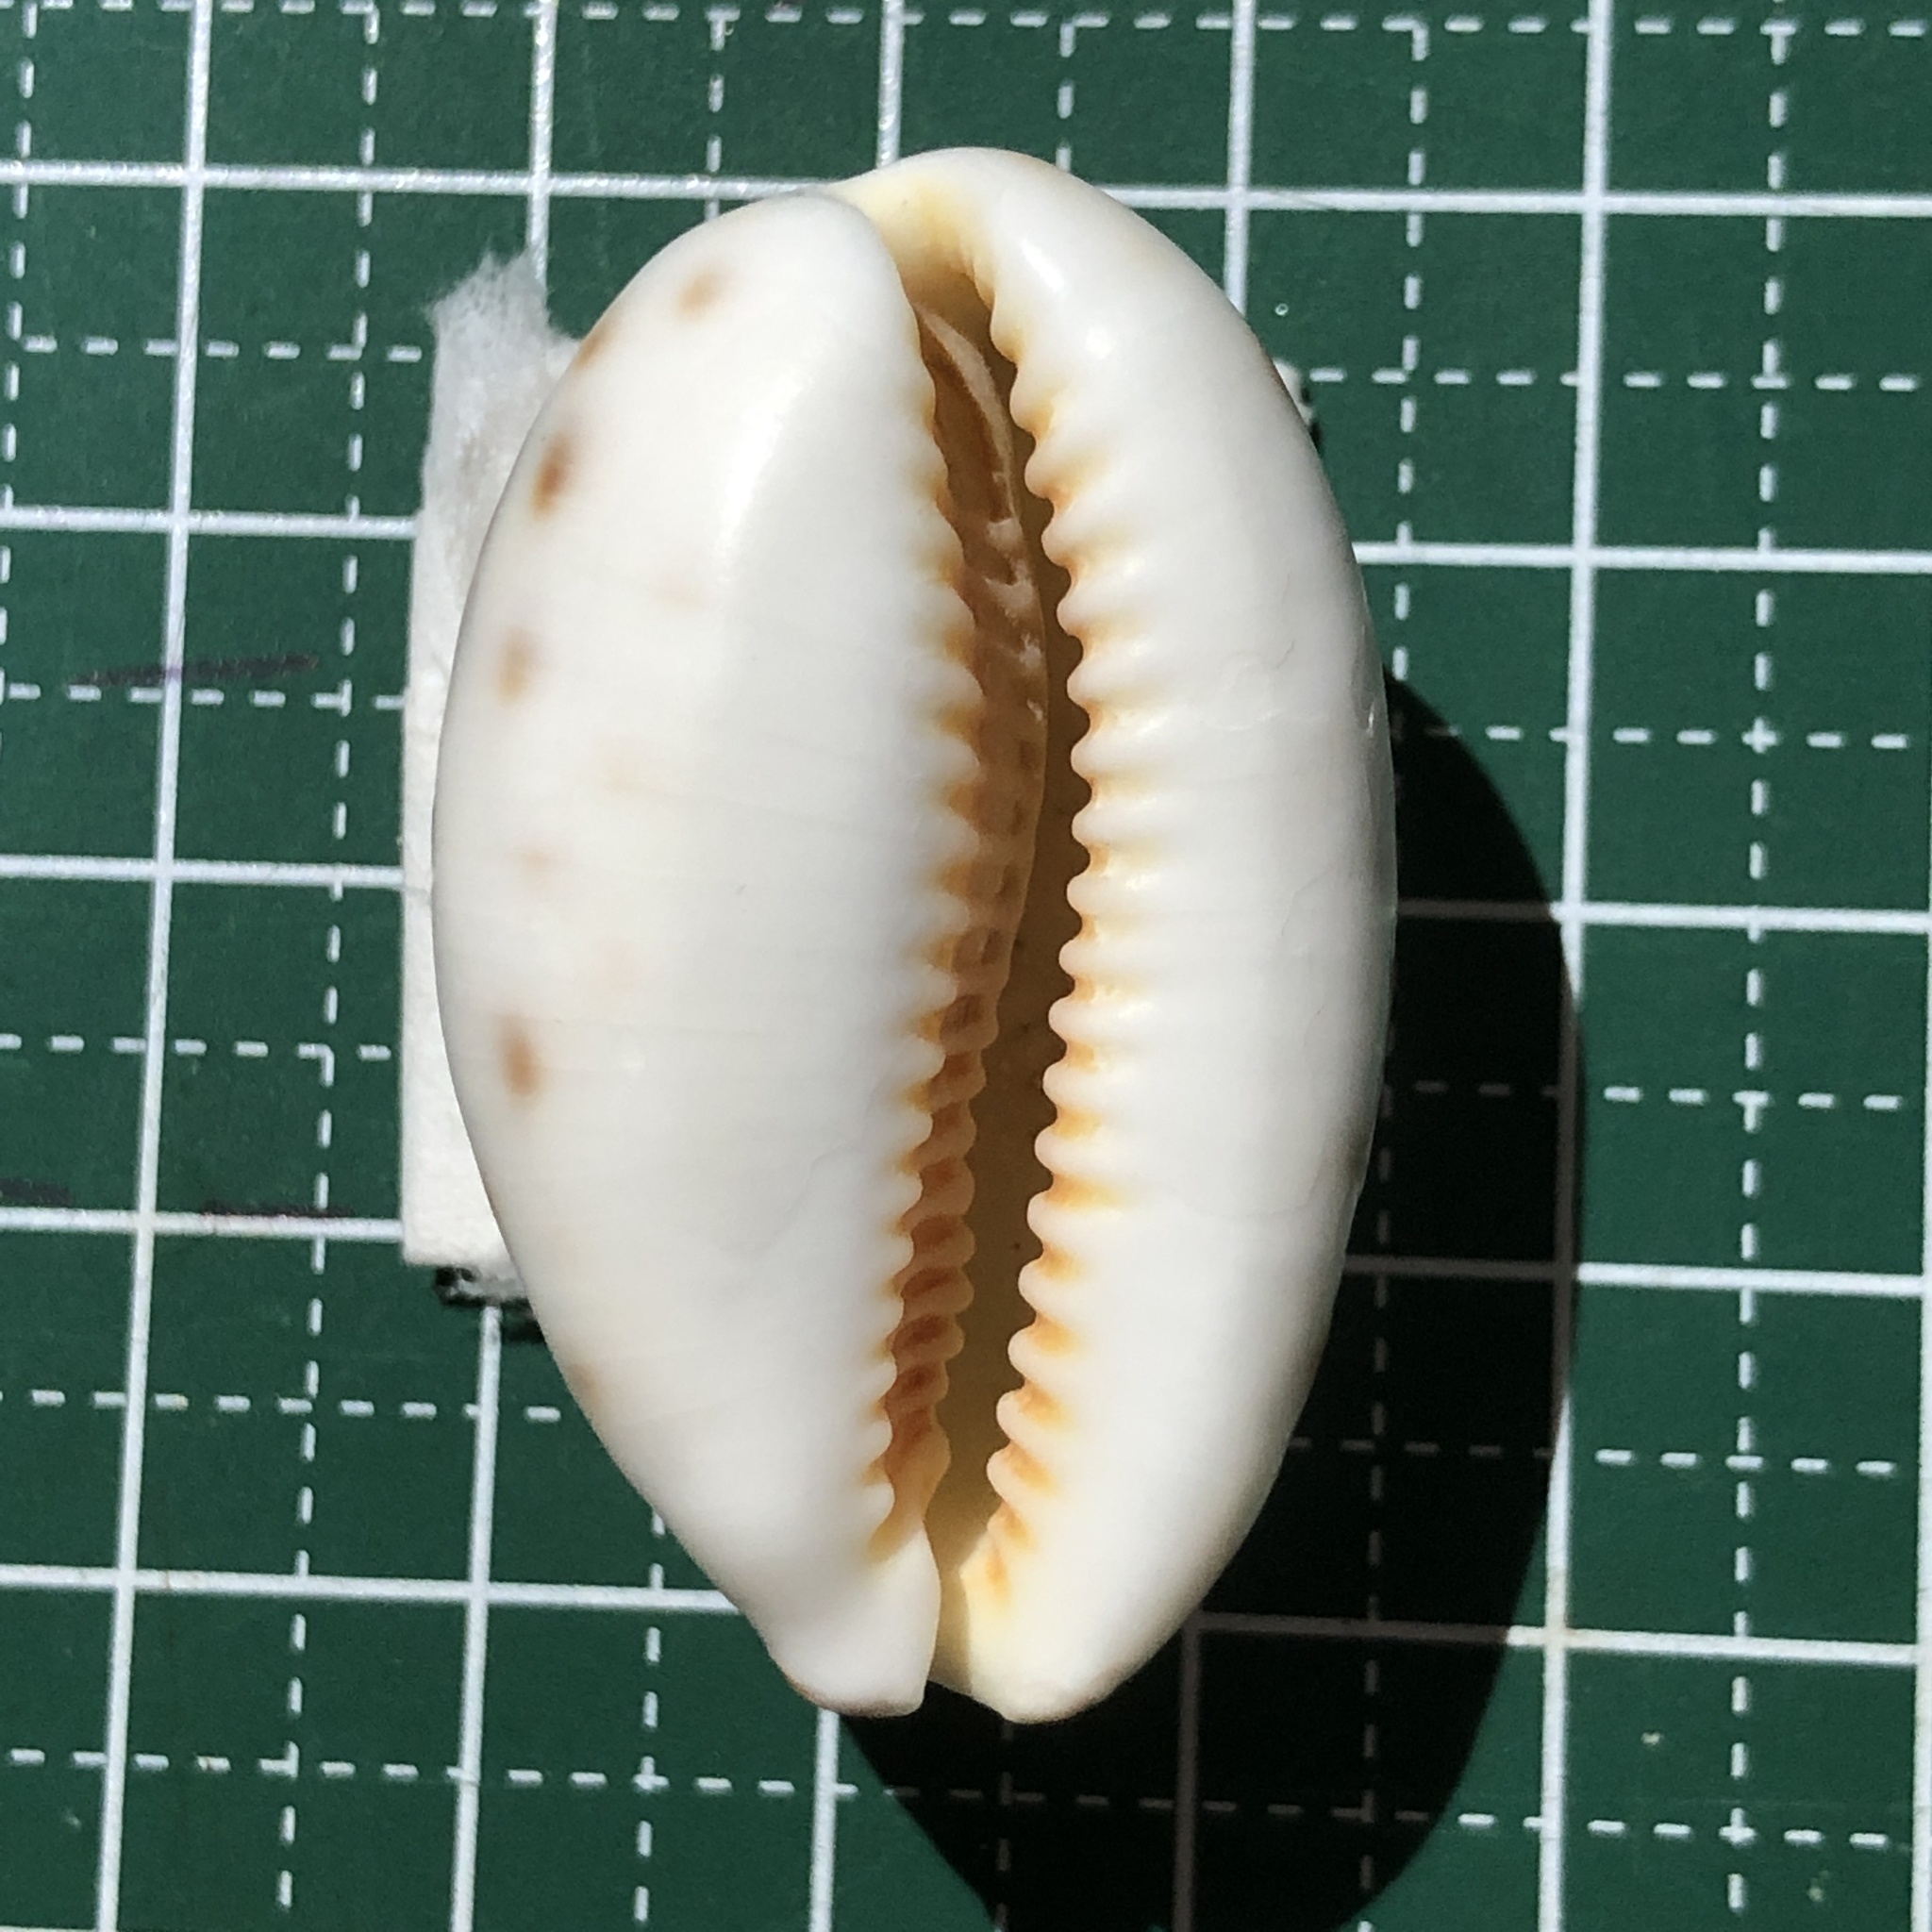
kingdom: Animalia
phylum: Mollusca
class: Gastropoda
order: Littorinimorpha
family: Cypraeidae
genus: Lyncina
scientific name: Lyncina lynx
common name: Bobcat cowrie
